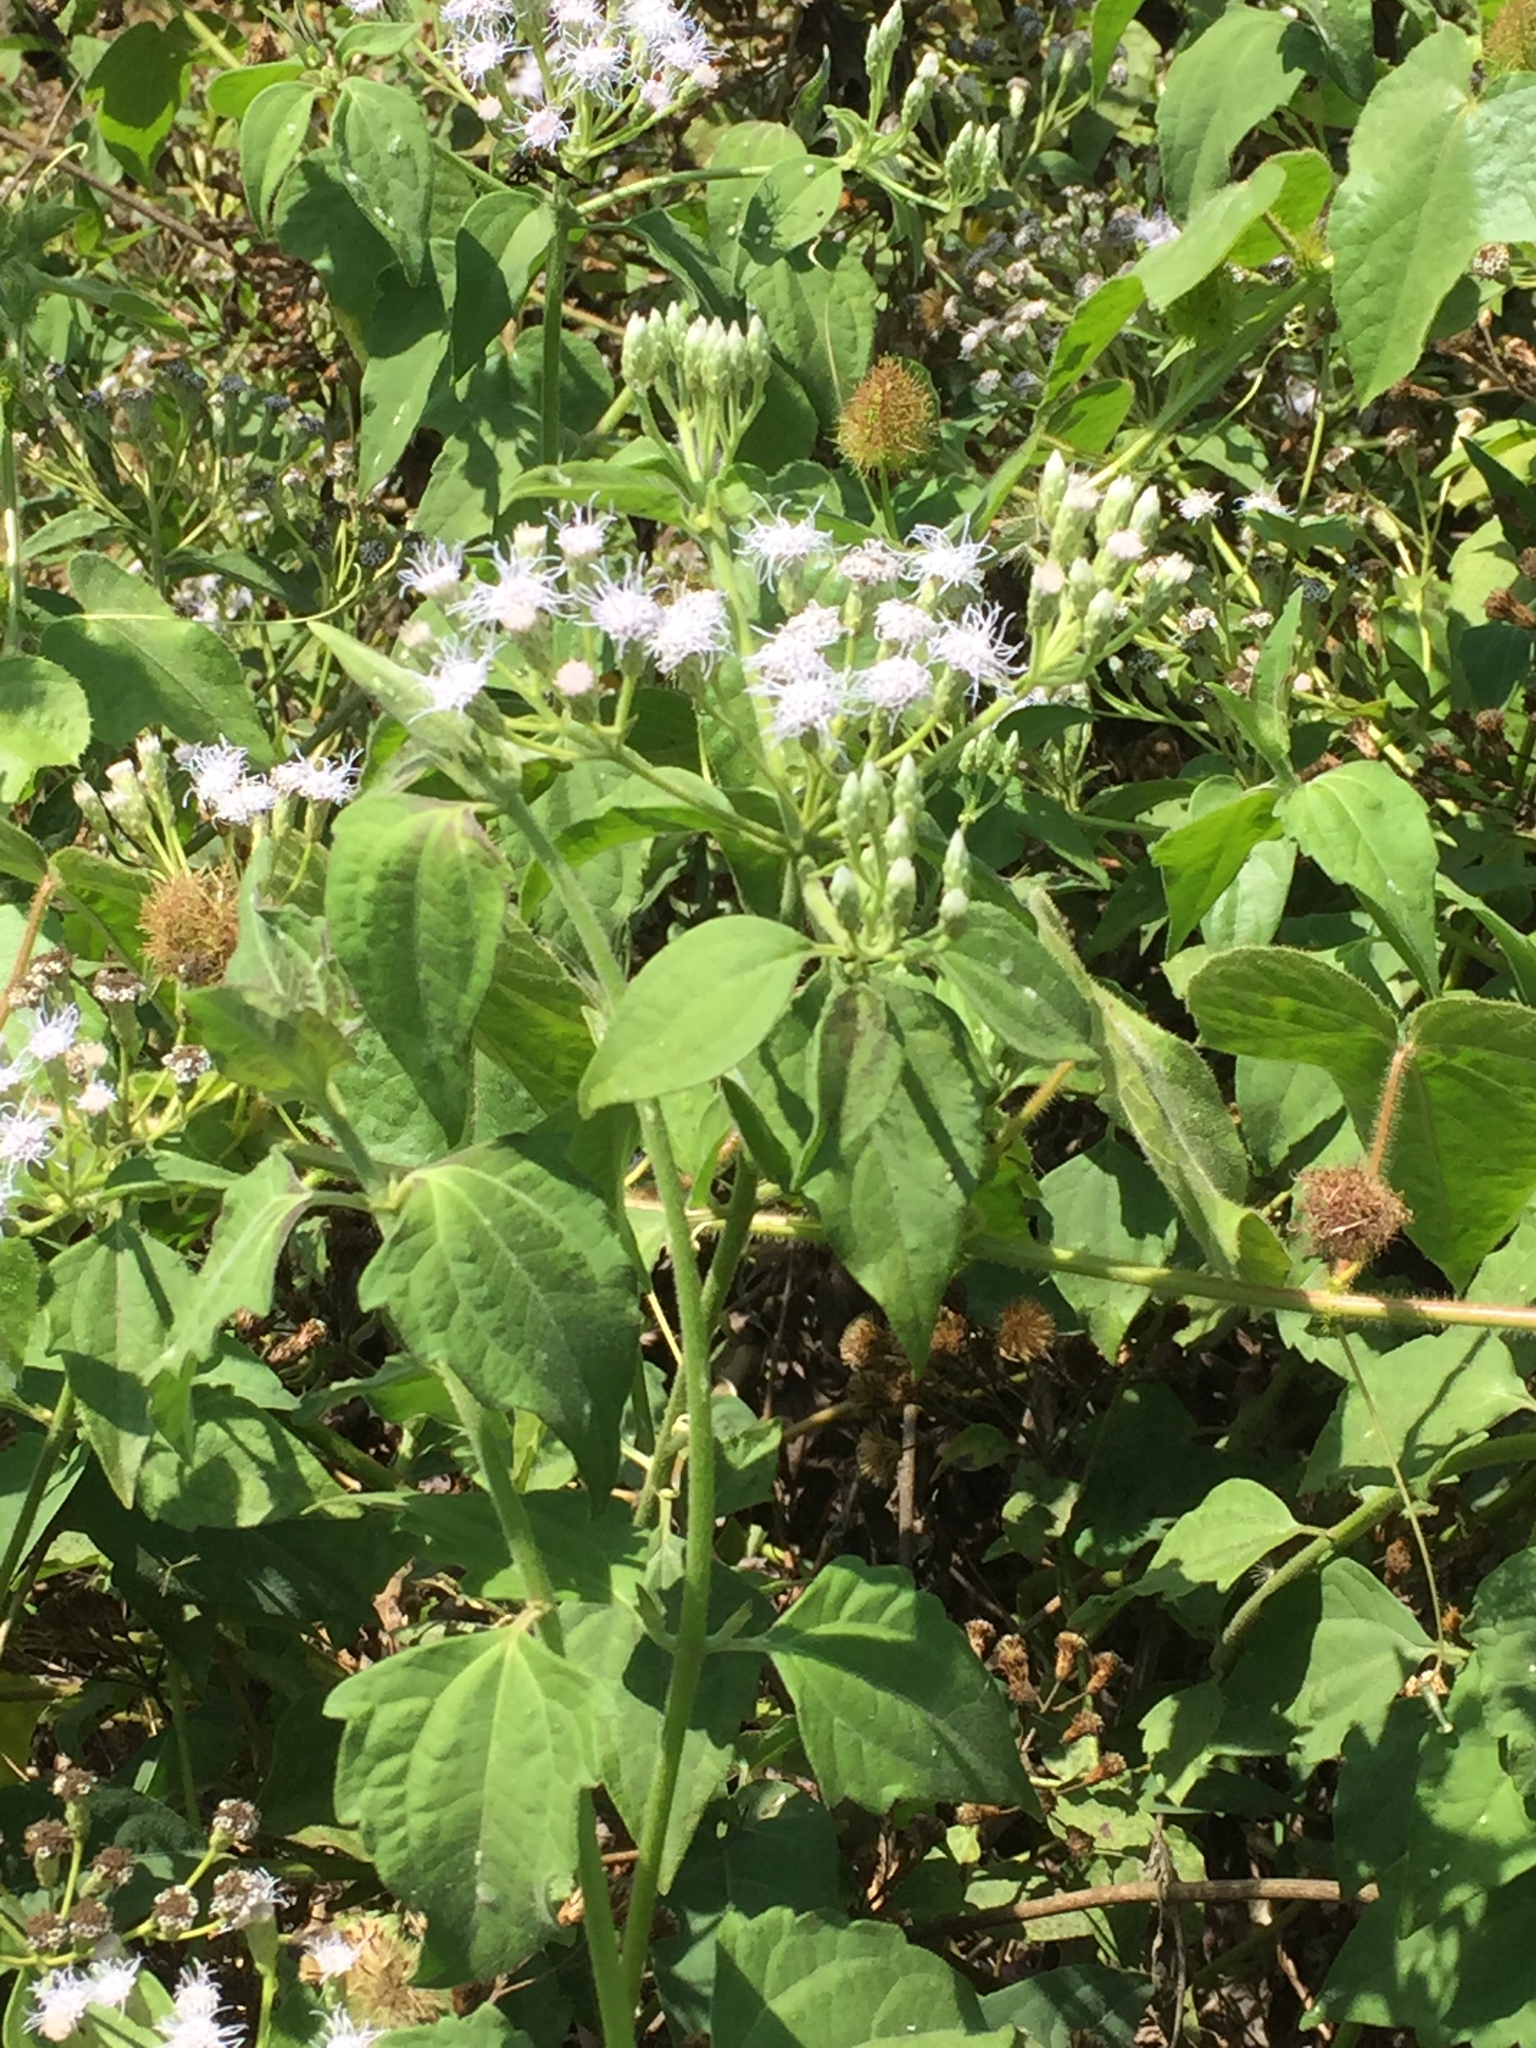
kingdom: Plantae
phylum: Tracheophyta
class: Magnoliopsida
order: Asterales
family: Asteraceae
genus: Chromolaena
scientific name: Chromolaena odorata
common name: Siamweed
